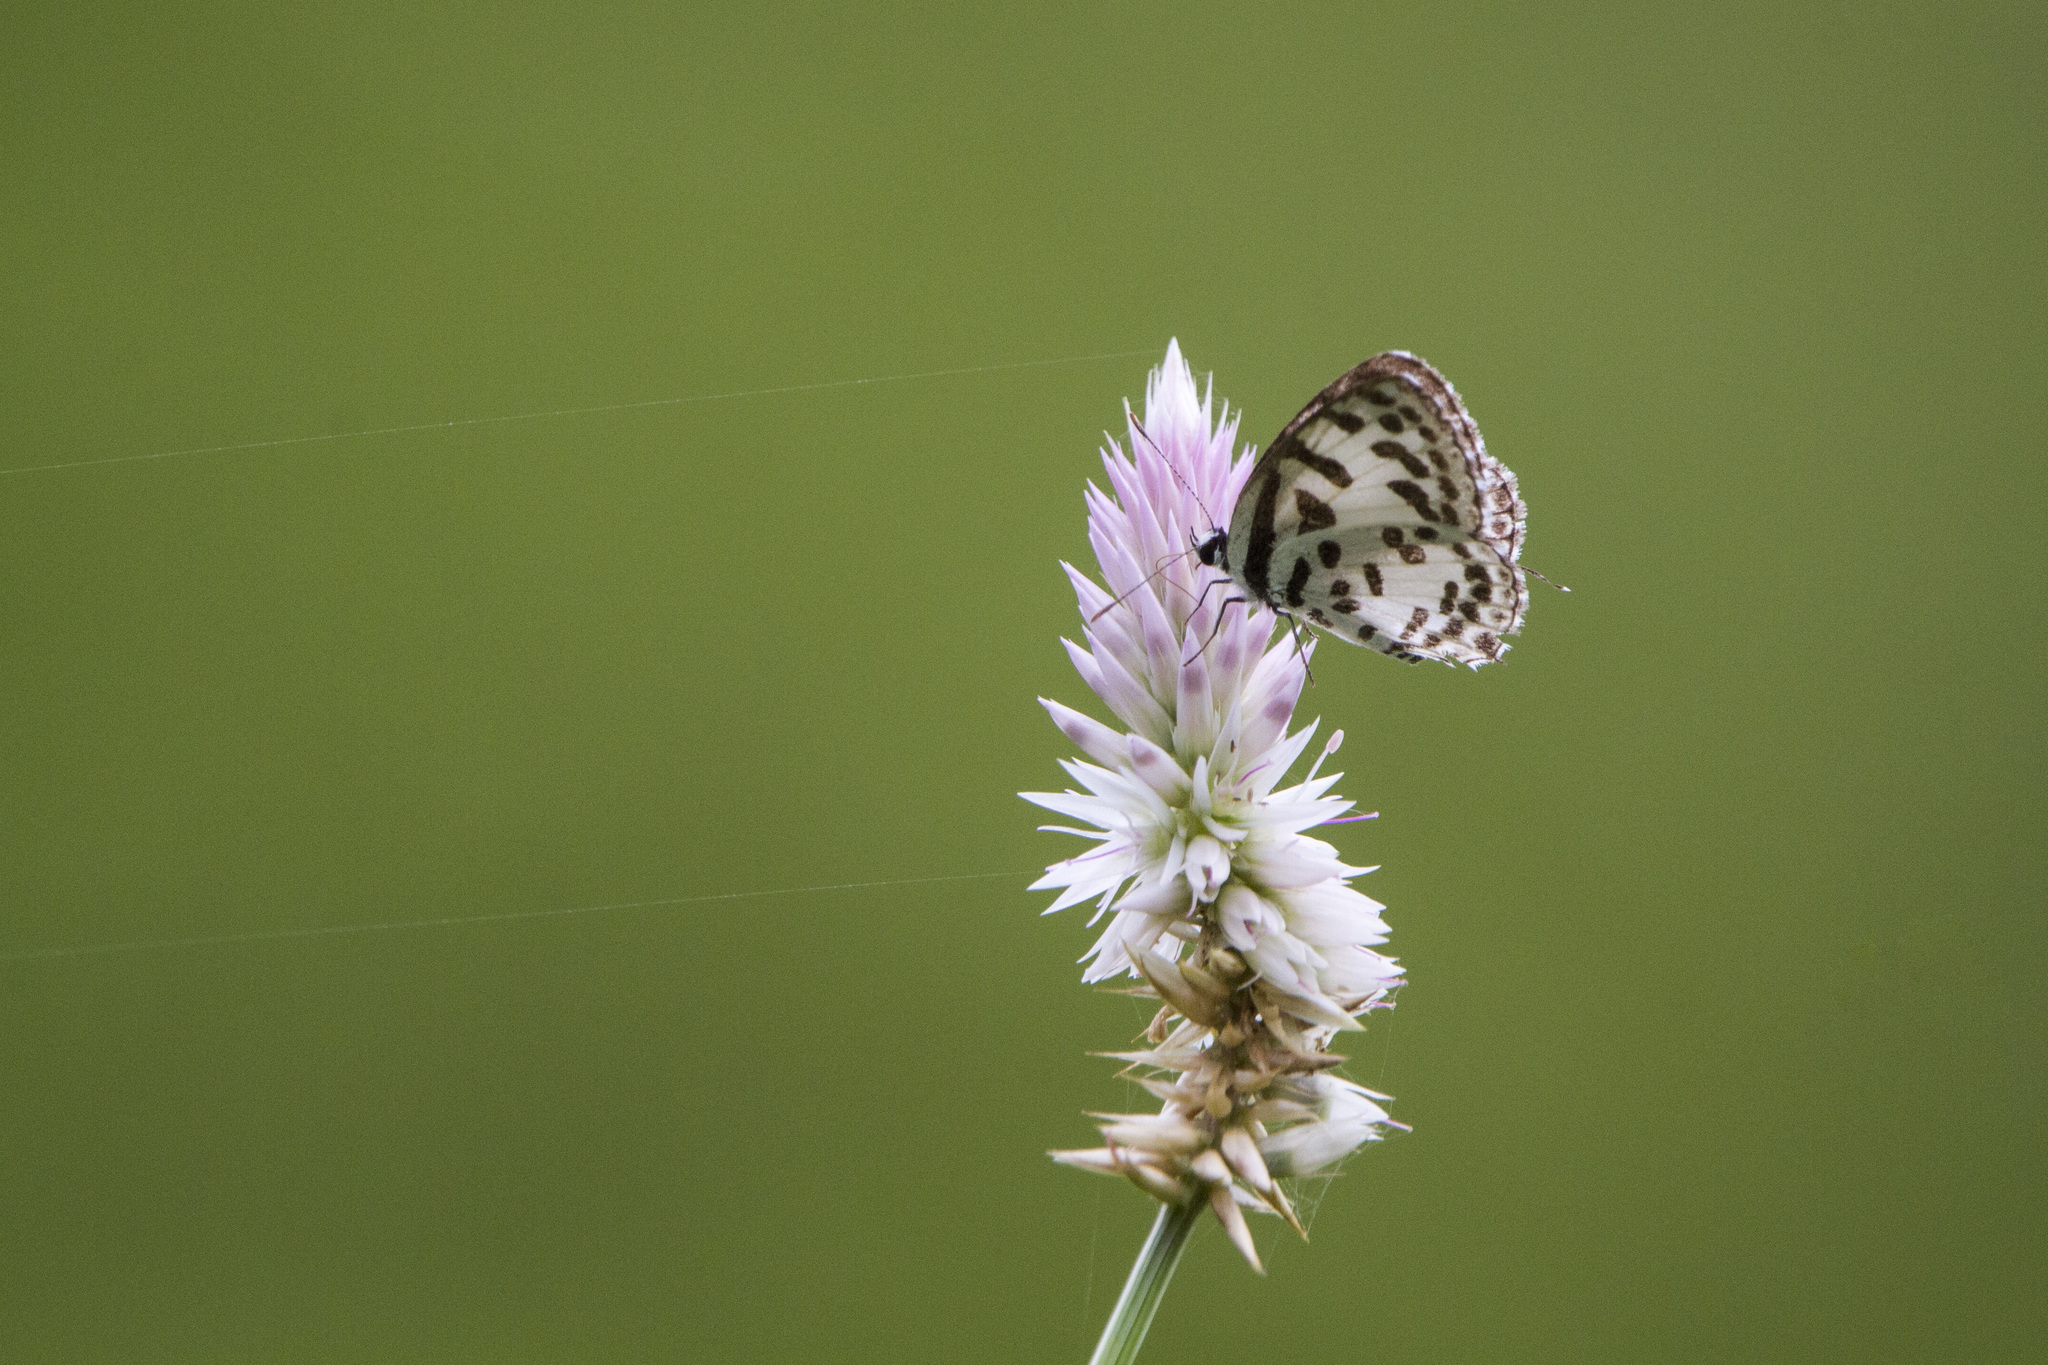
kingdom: Animalia
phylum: Arthropoda
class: Insecta
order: Lepidoptera
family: Lycaenidae
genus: Castalius
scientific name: Castalius rosimon
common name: Common pierrot
